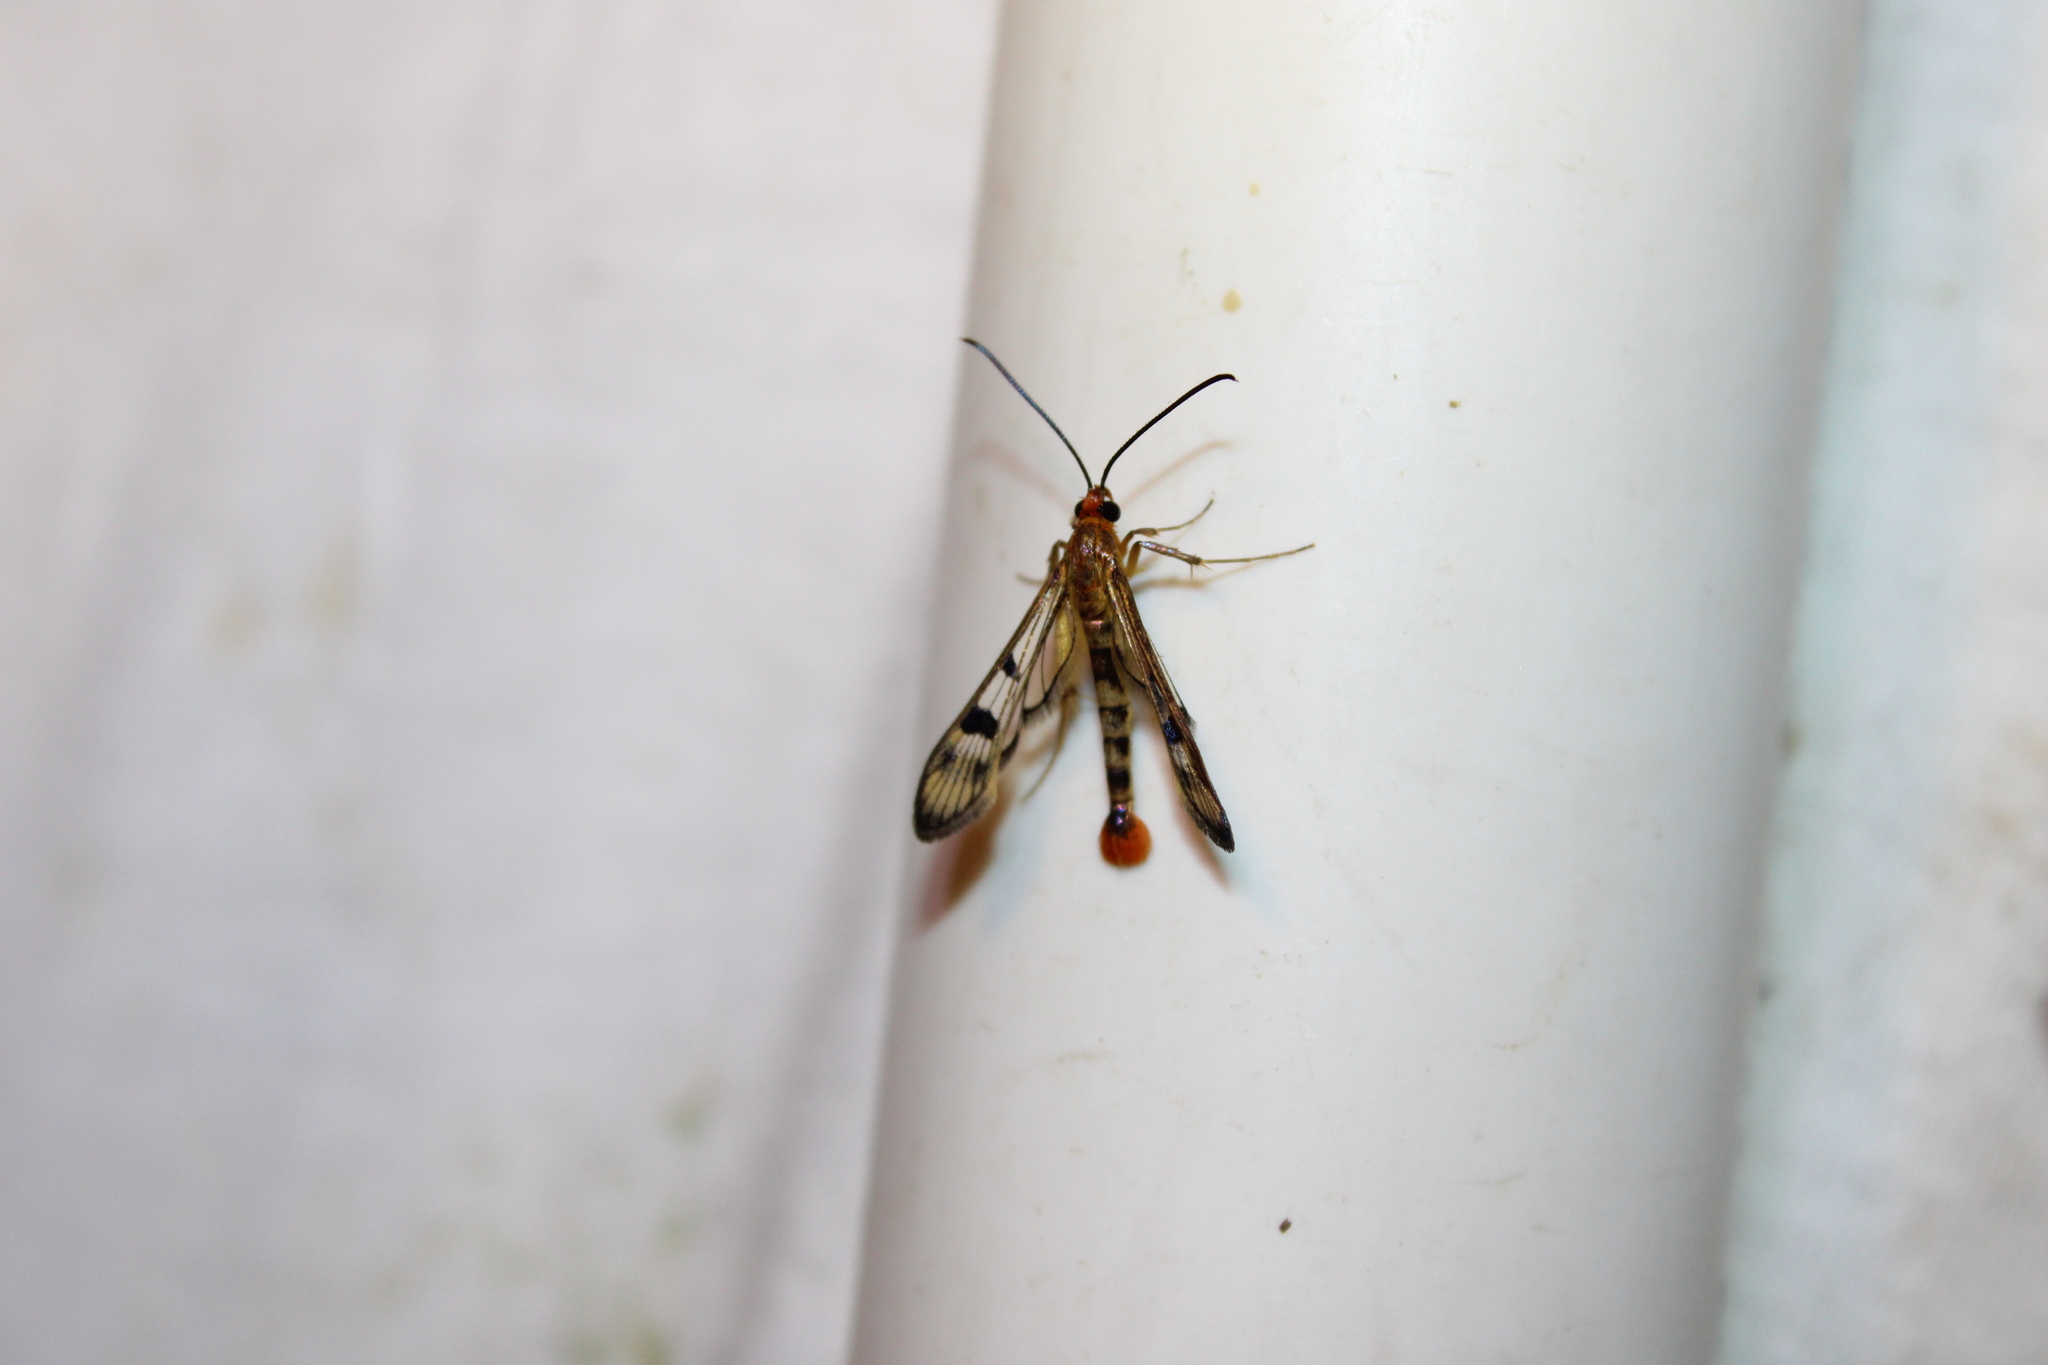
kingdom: Animalia
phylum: Arthropoda
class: Insecta
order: Lepidoptera
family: Sesiidae
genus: Synanthedon
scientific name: Synanthedon acerni
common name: Maple callus borer moth
